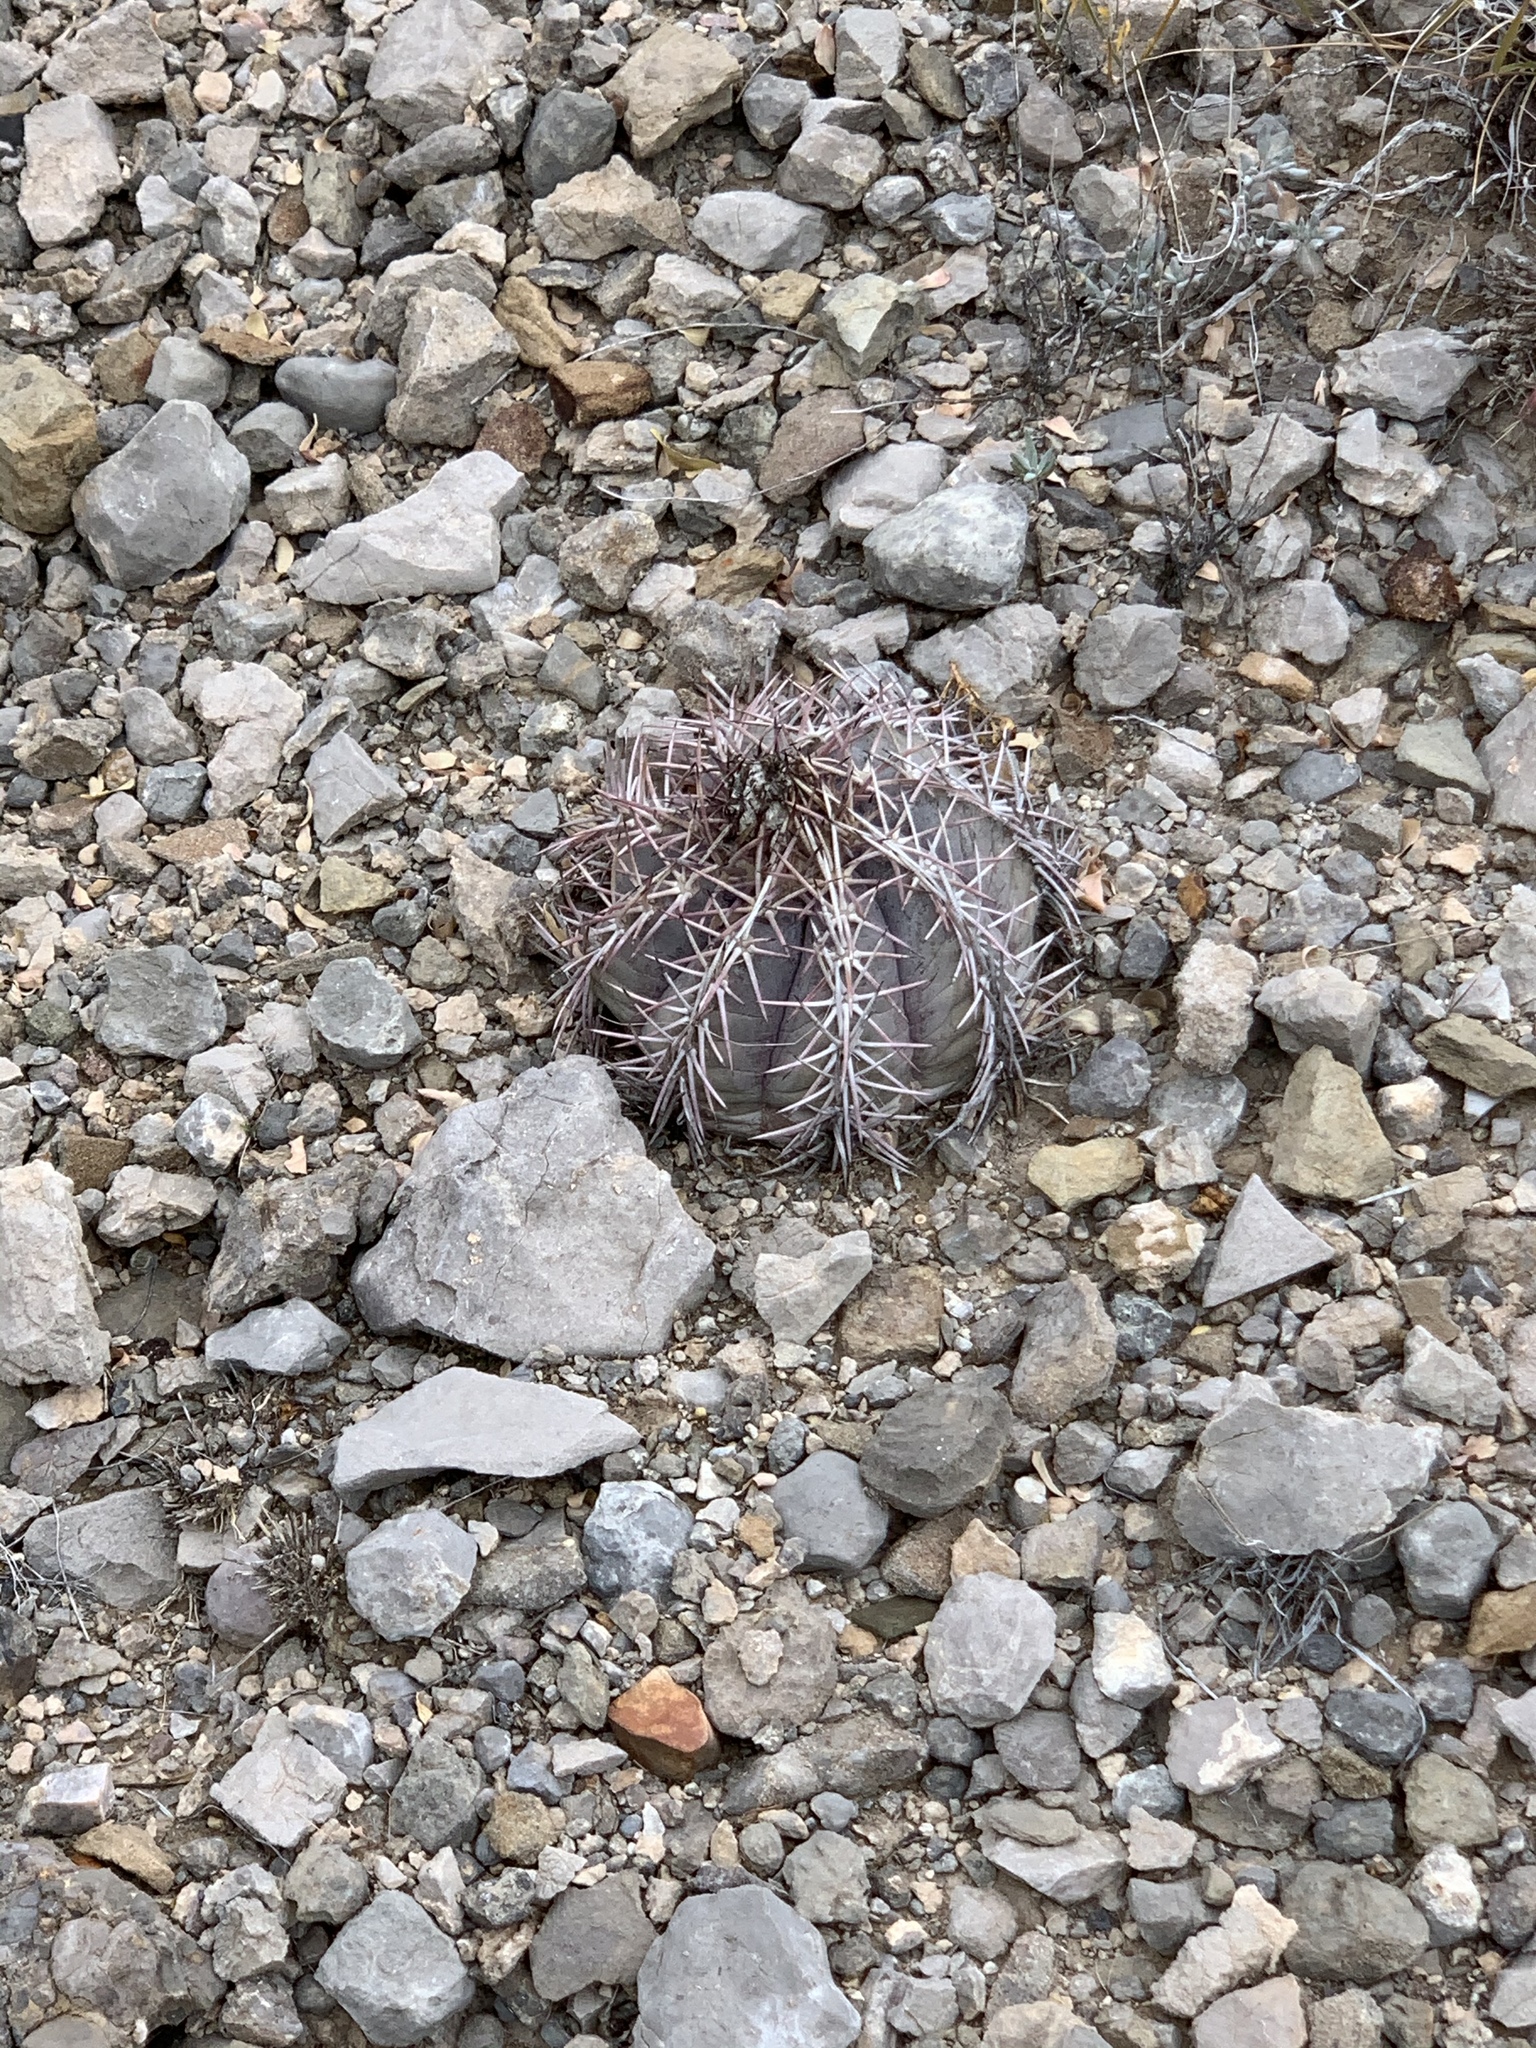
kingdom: Plantae
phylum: Tracheophyta
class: Magnoliopsida
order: Caryophyllales
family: Cactaceae
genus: Echinocactus
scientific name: Echinocactus horizonthalonius
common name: Devilshead
